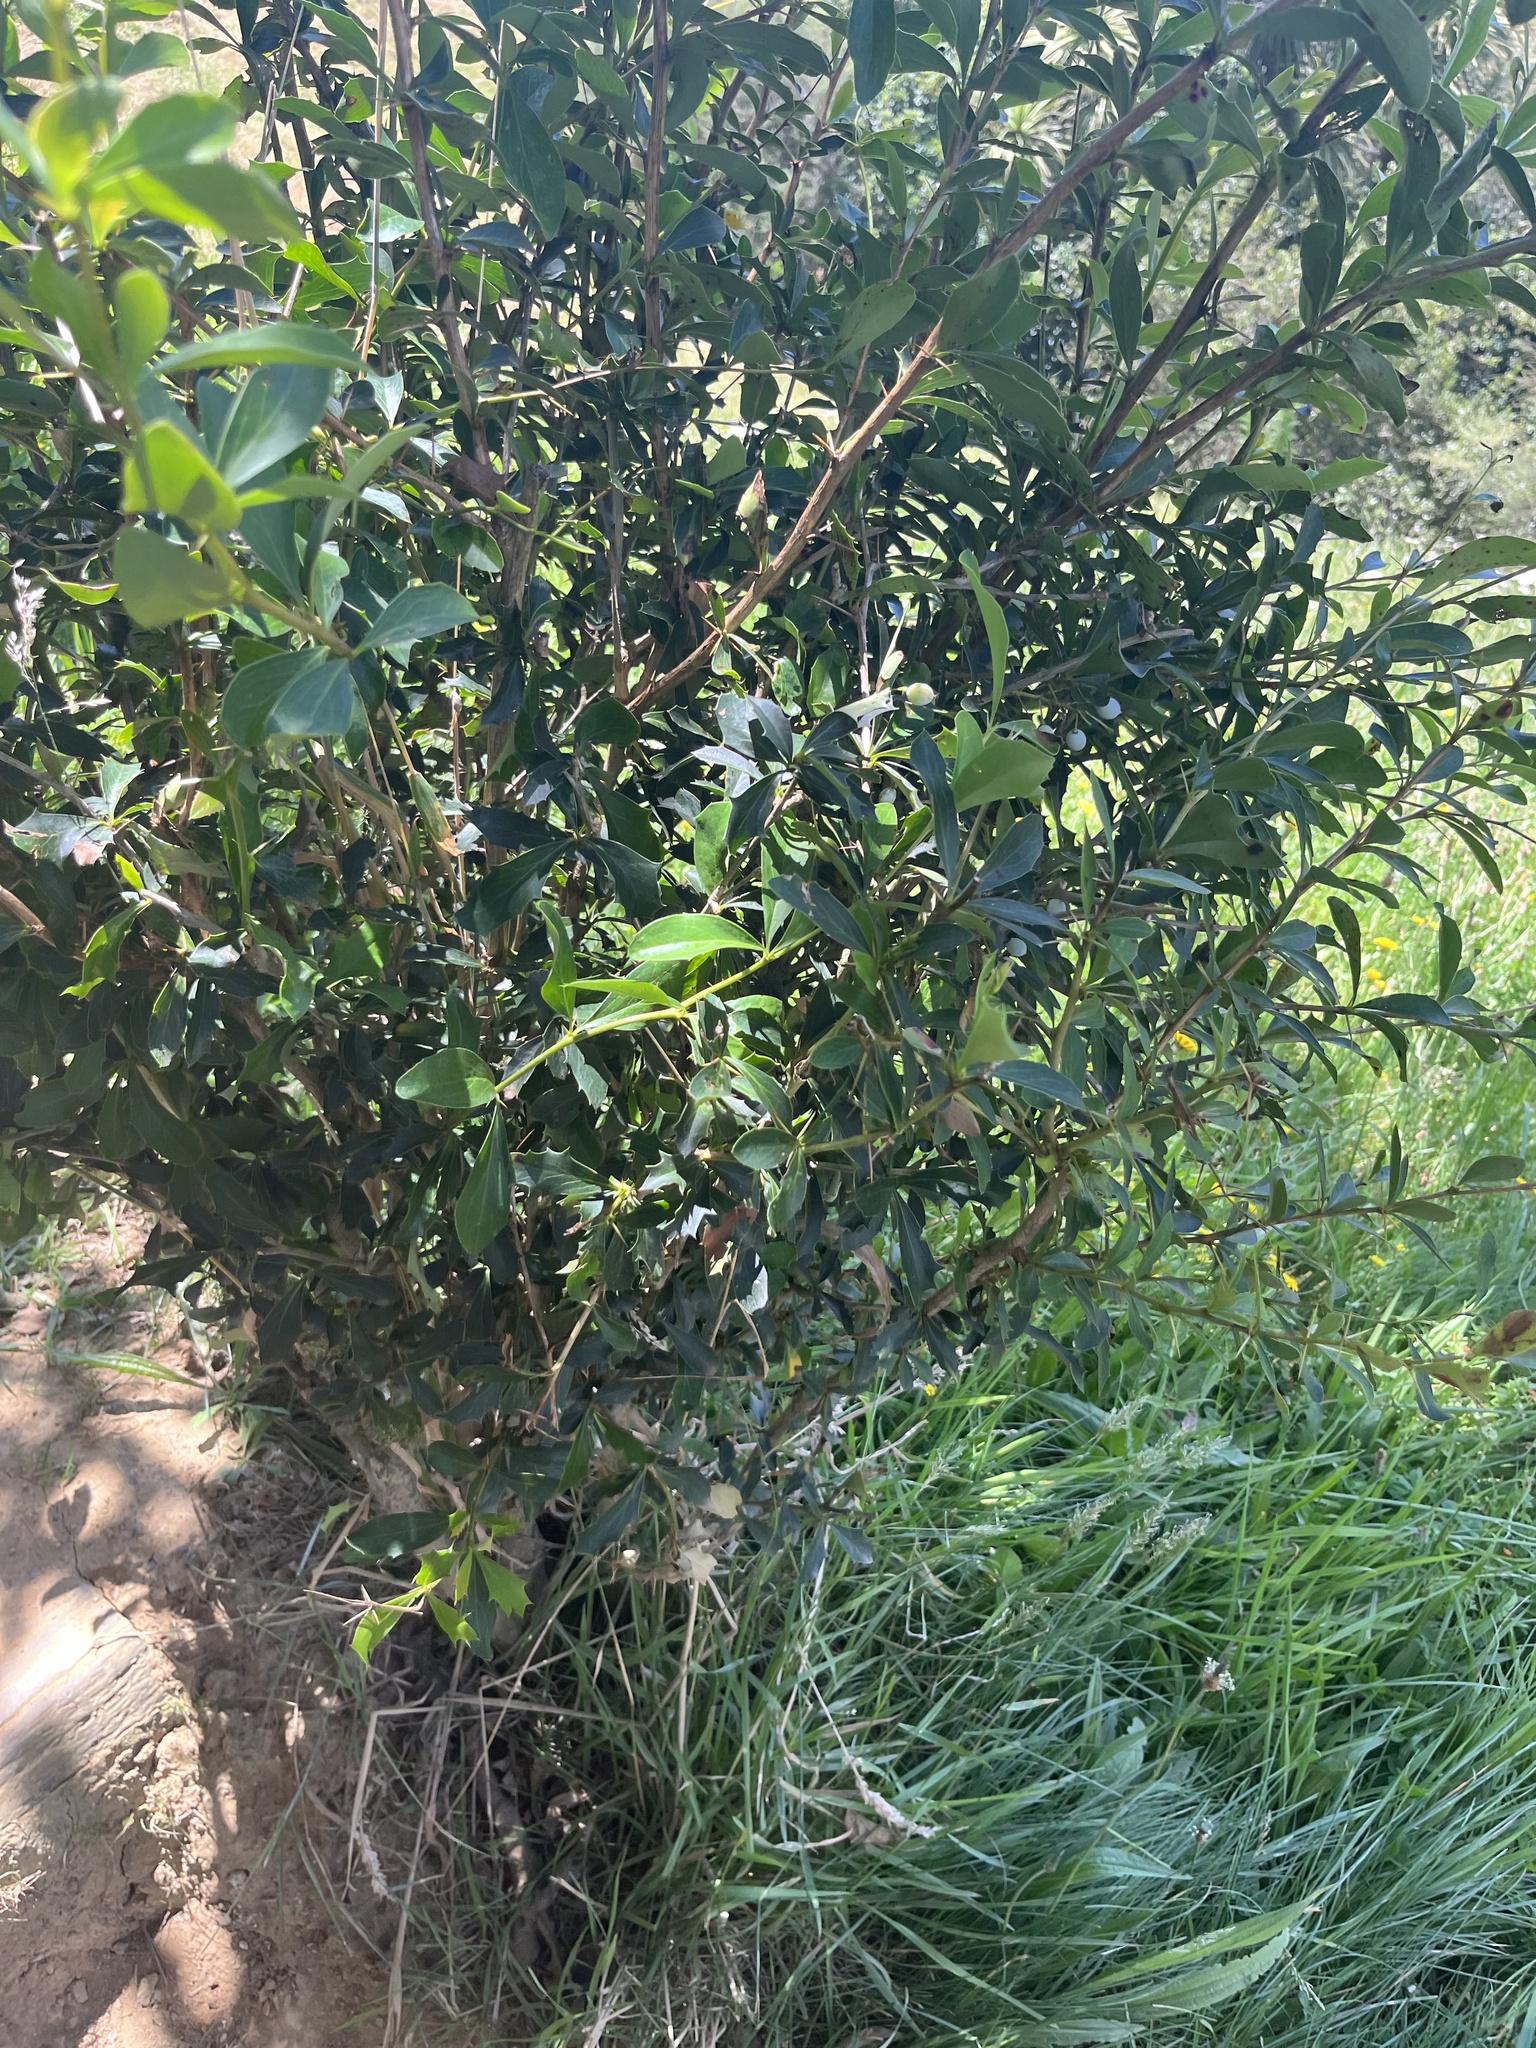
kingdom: Plantae
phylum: Tracheophyta
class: Magnoliopsida
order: Ranunculales
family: Berberidaceae
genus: Berberis
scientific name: Berberis glaucocarpa
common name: Great barberry
